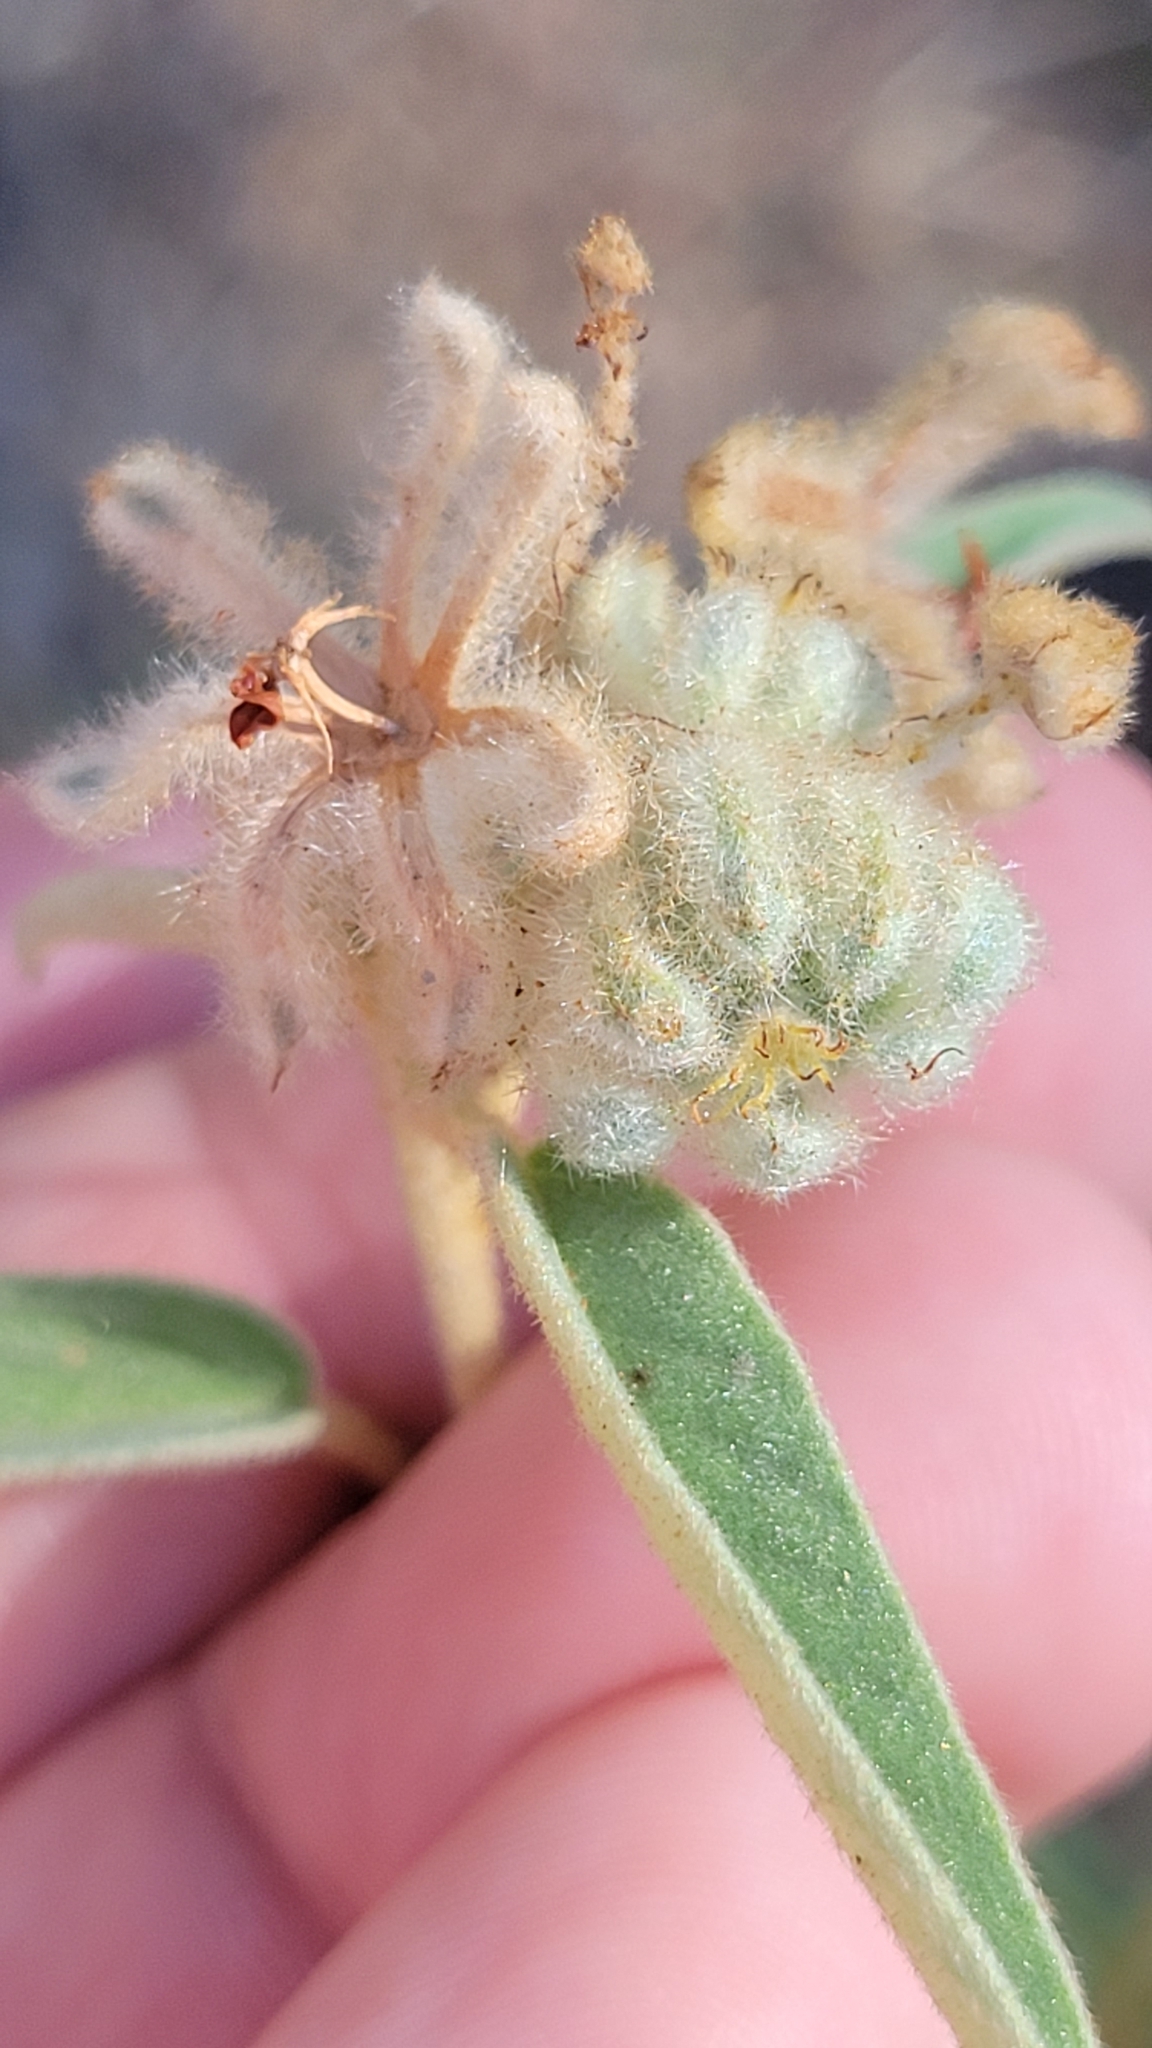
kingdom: Plantae
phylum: Tracheophyta
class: Magnoliopsida
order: Malpighiales
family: Euphorbiaceae
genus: Croton
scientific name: Croton lindheimeri
